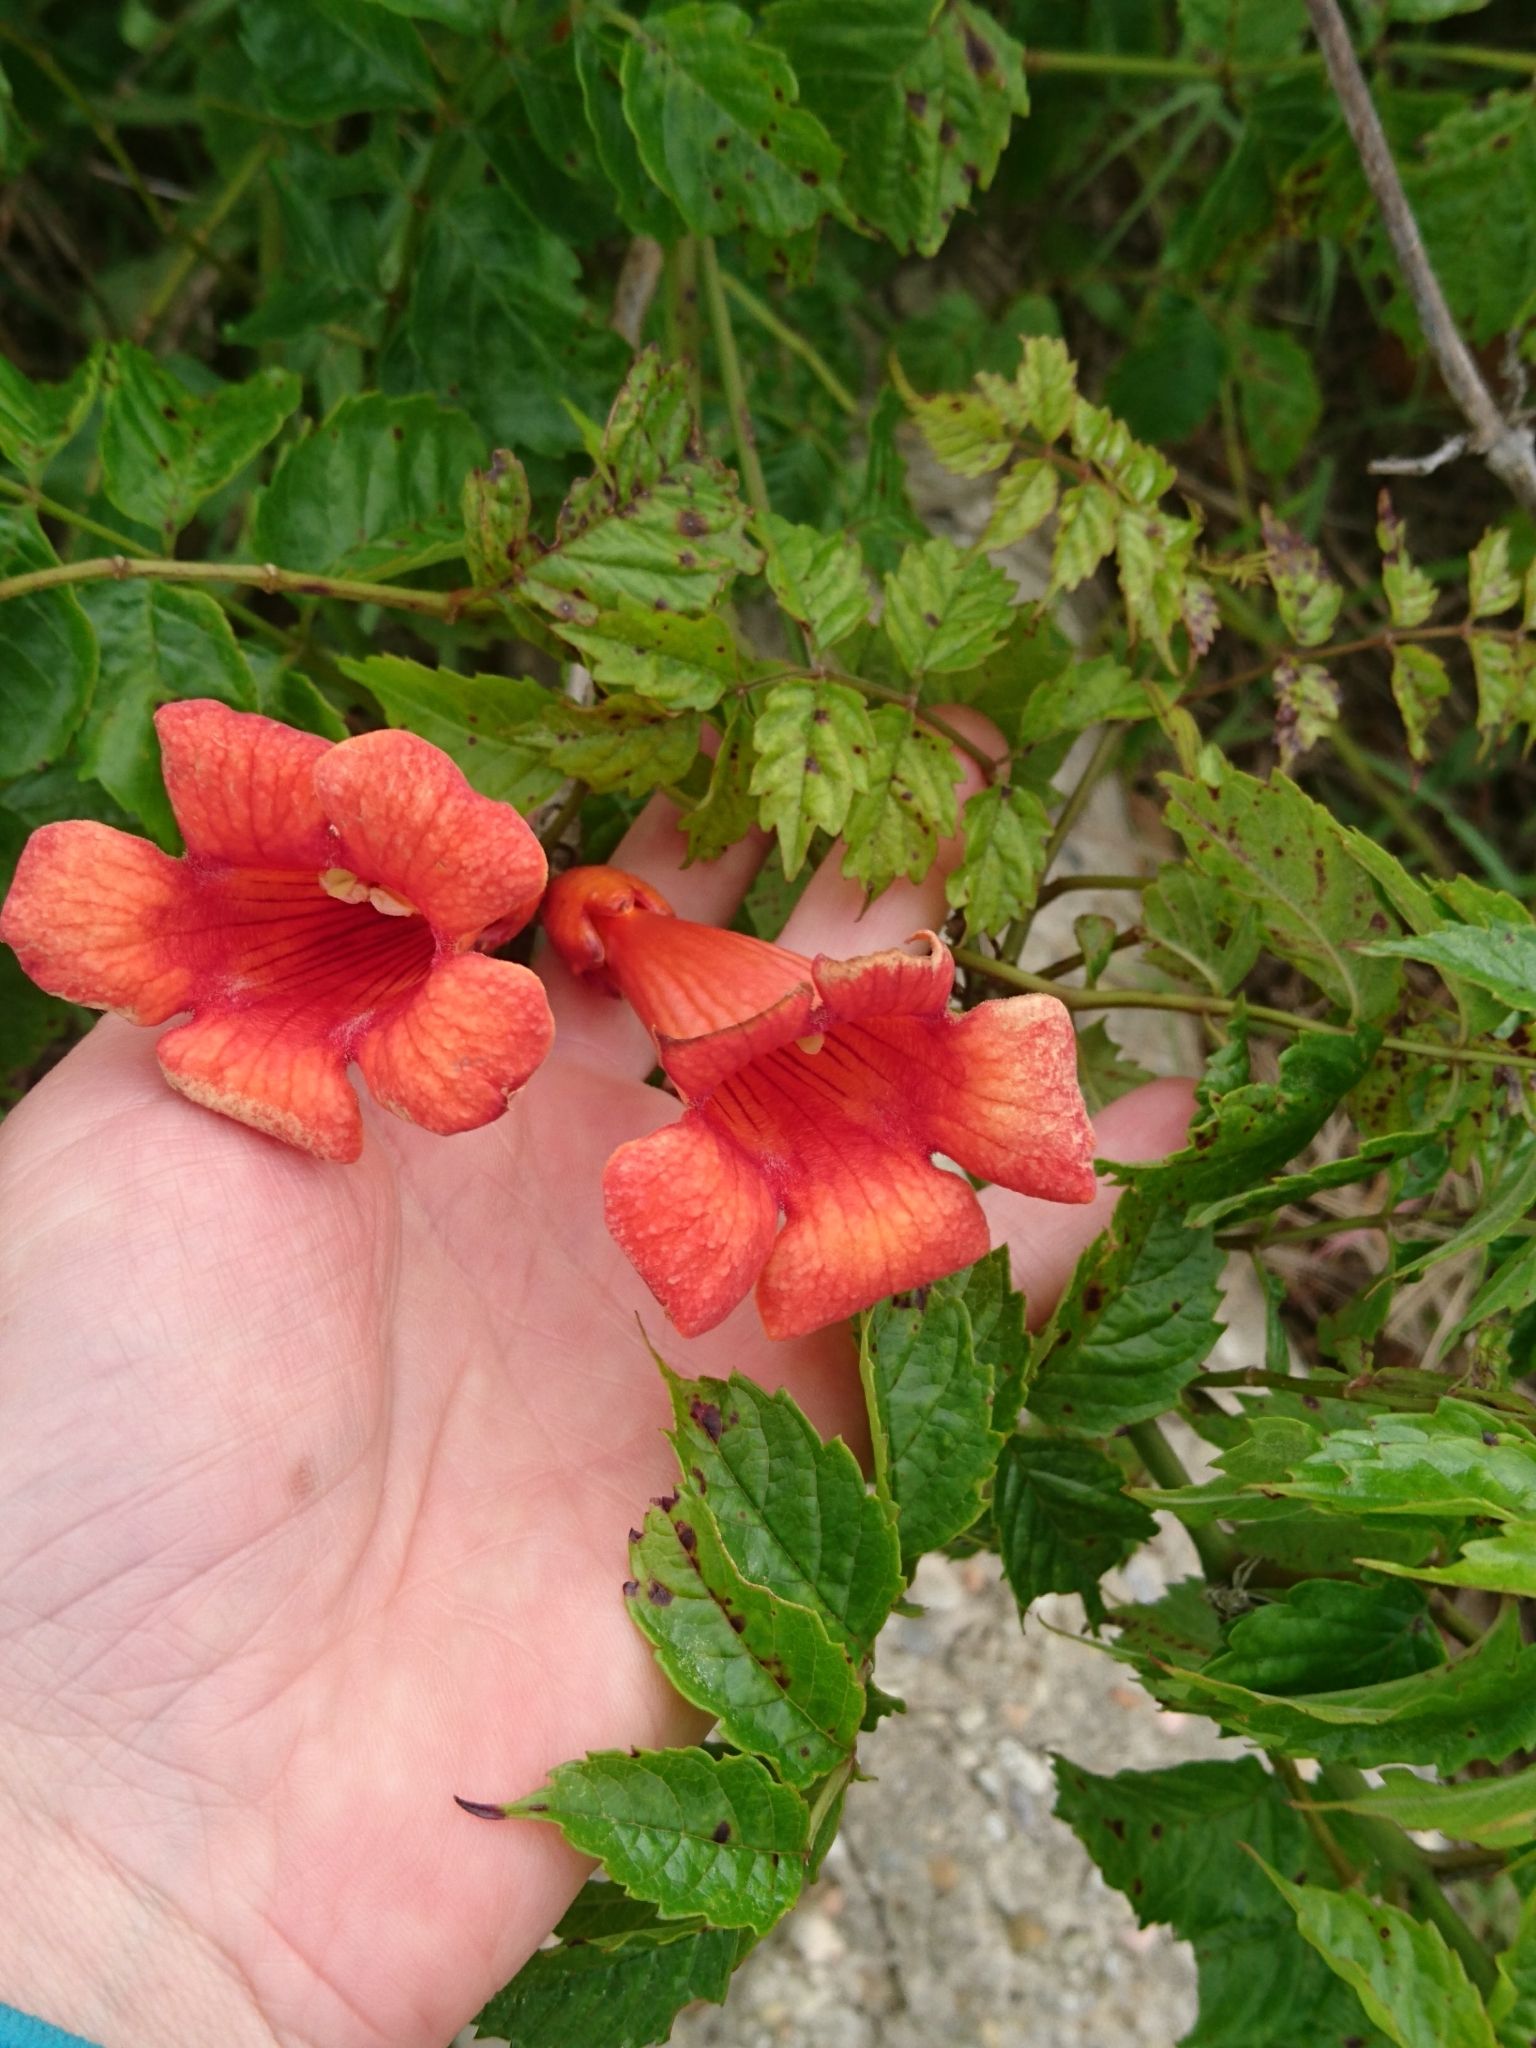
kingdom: Plantae
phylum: Tracheophyta
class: Magnoliopsida
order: Lamiales
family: Bignoniaceae
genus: Campsis
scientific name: Campsis radicans
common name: Trumpet-creeper
